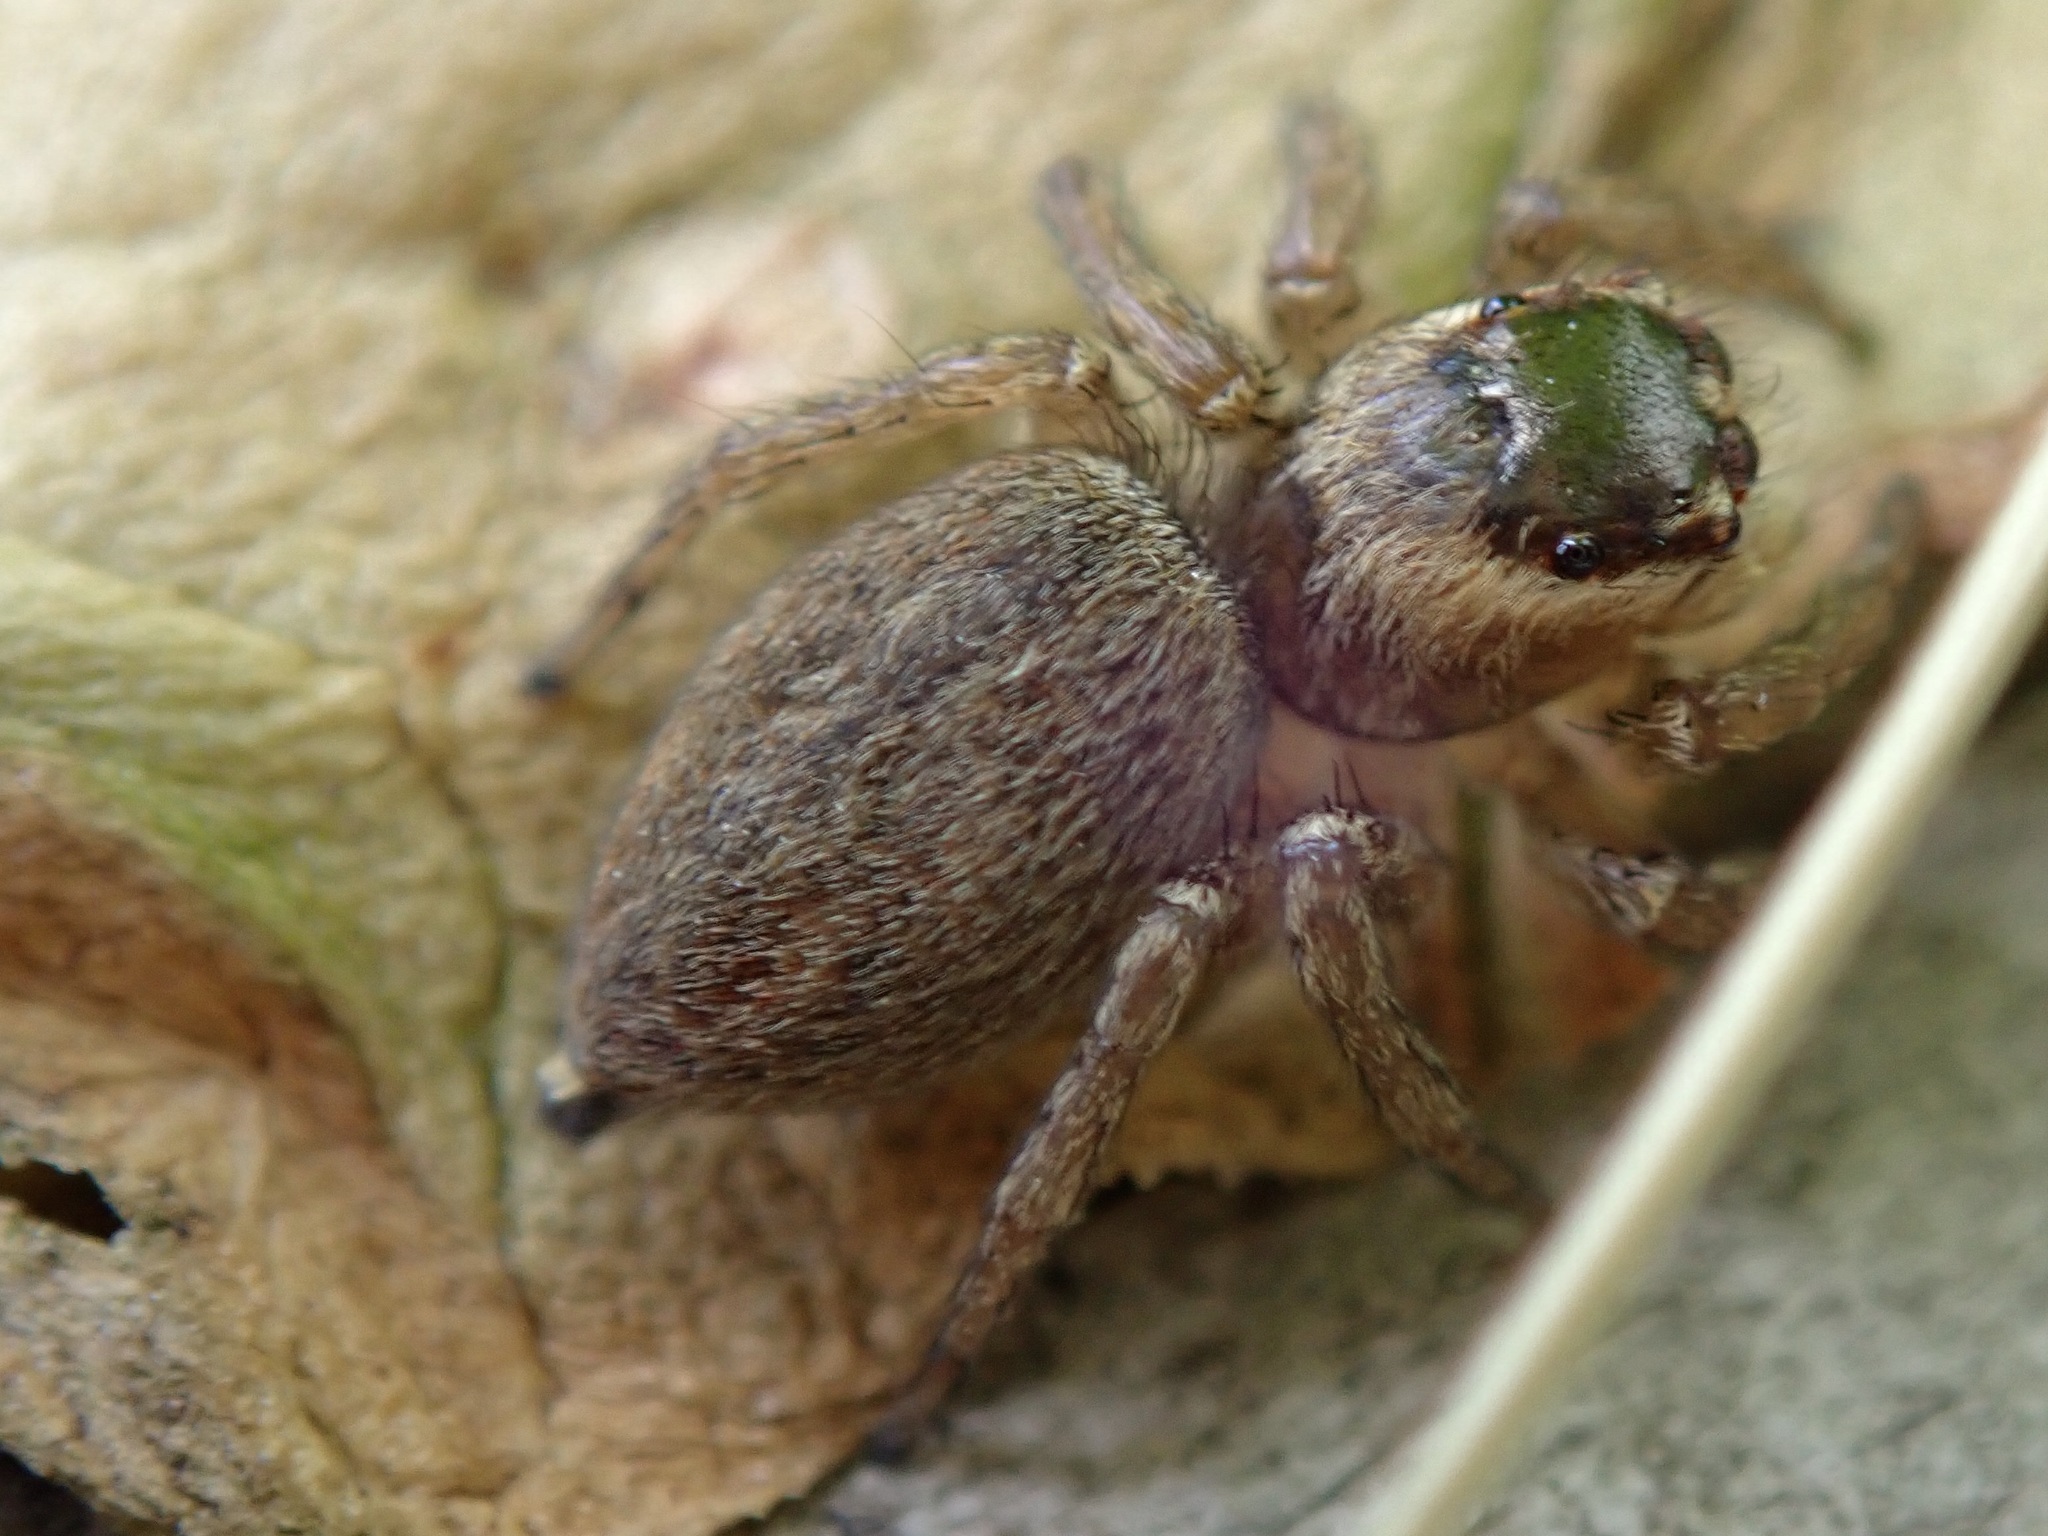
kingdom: Animalia
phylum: Arthropoda
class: Arachnida
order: Araneae
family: Salticidae
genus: Maratus
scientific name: Maratus griseus
